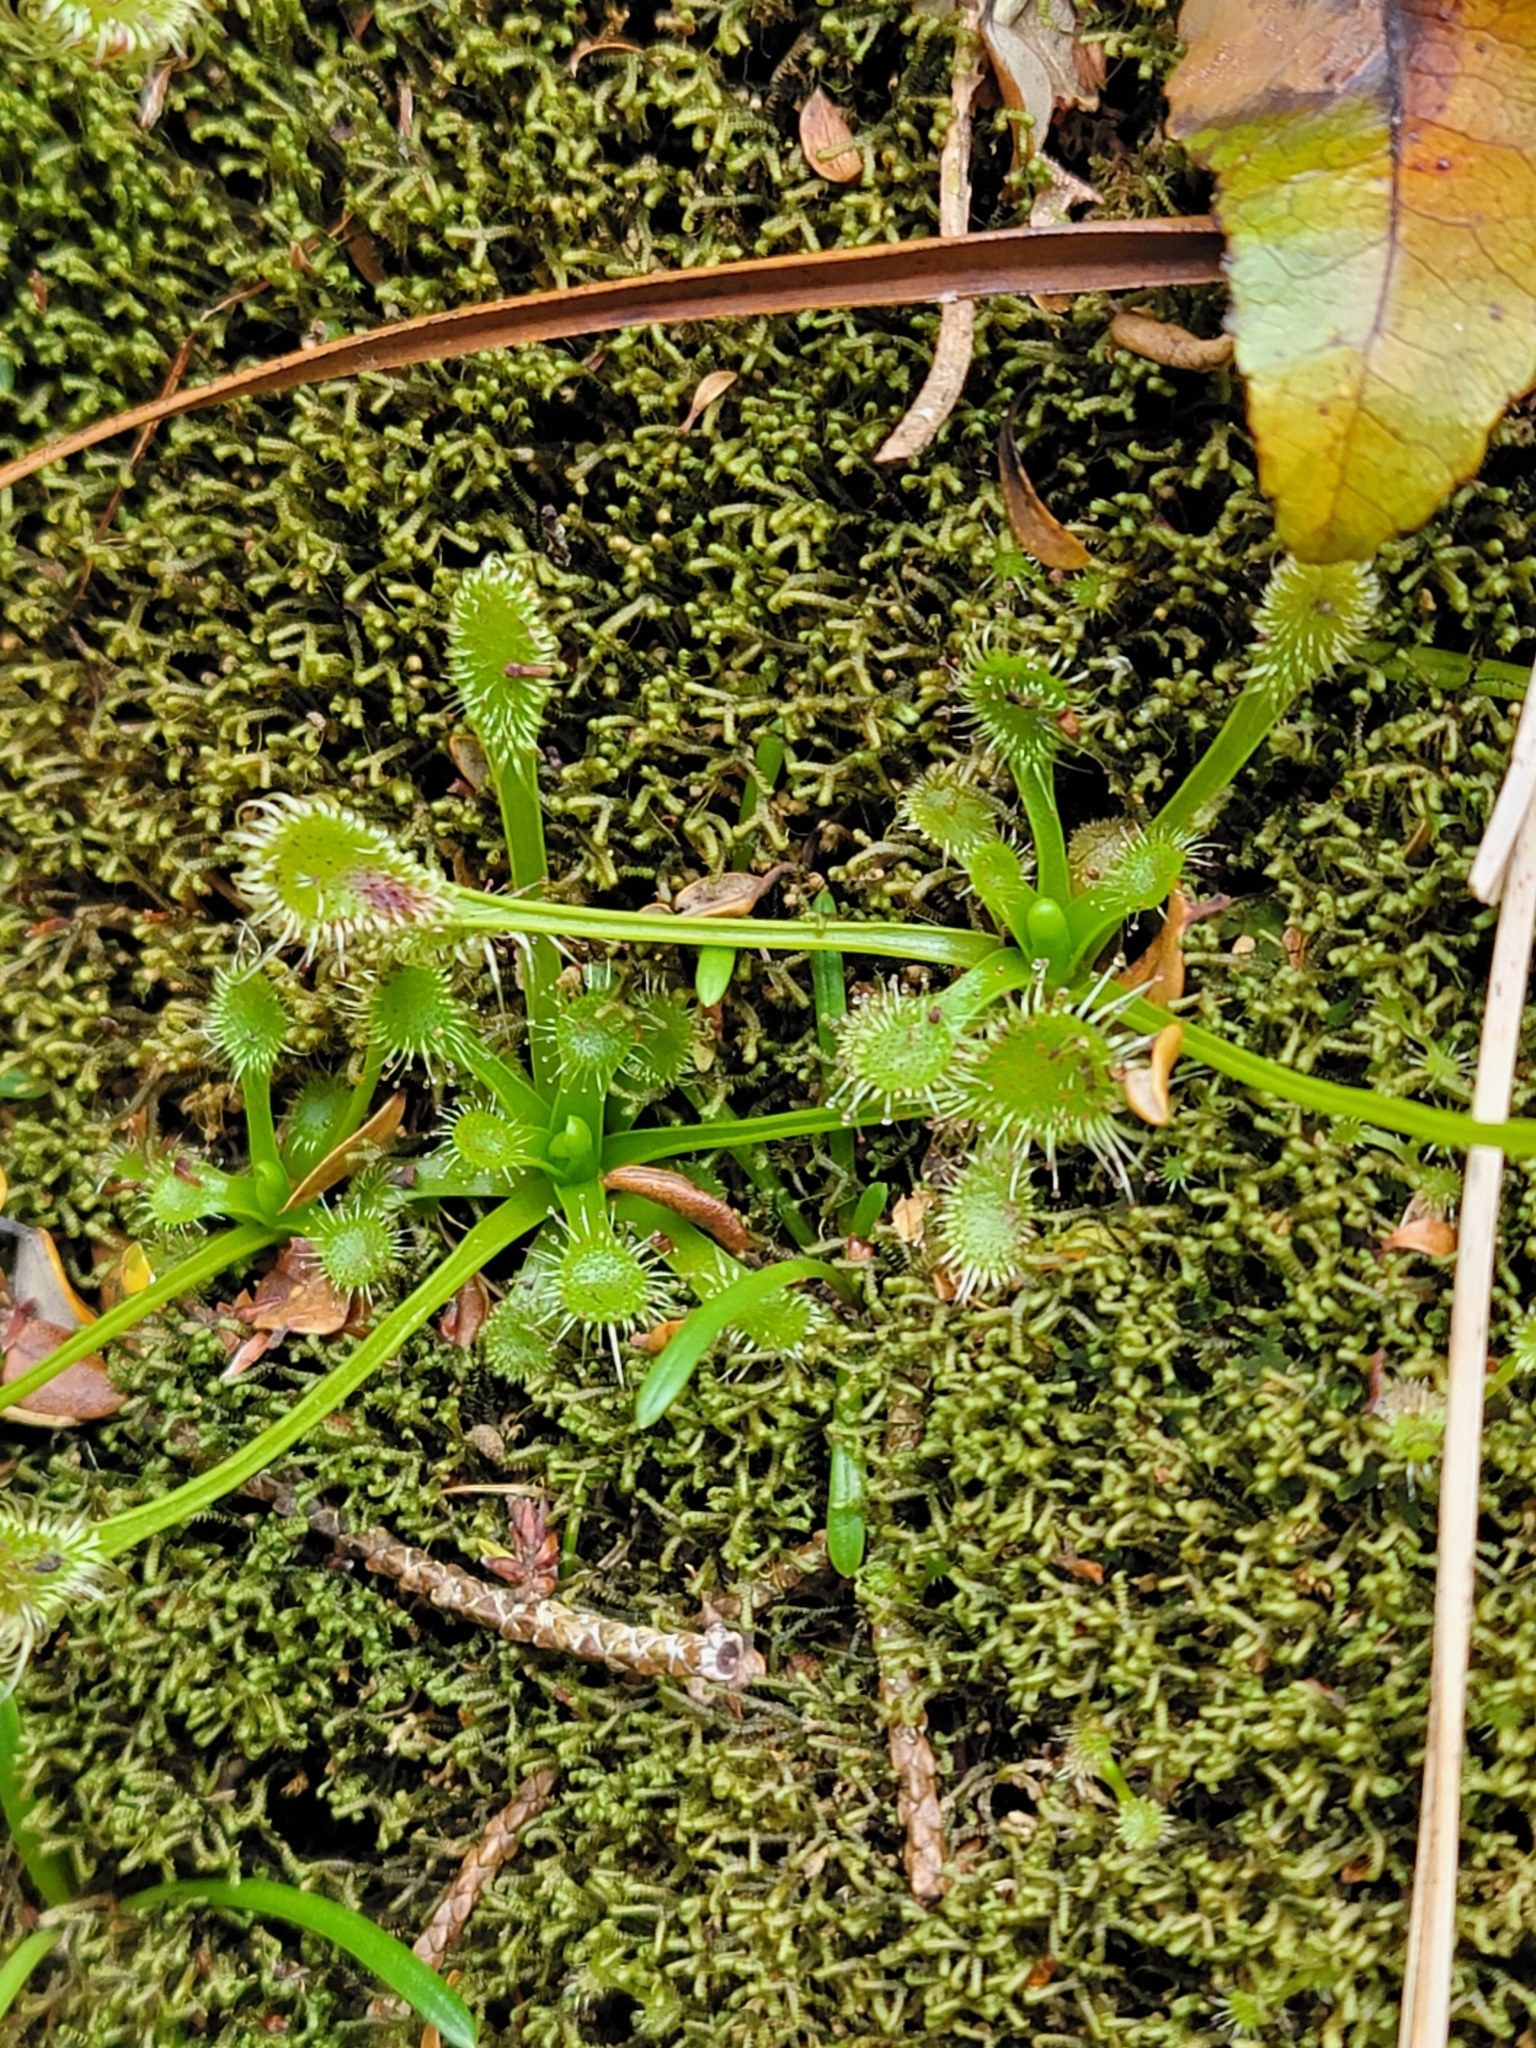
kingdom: Plantae
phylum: Tracheophyta
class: Magnoliopsida
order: Caryophyllales
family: Droseraceae
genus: Drosera
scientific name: Drosera stenopetala
